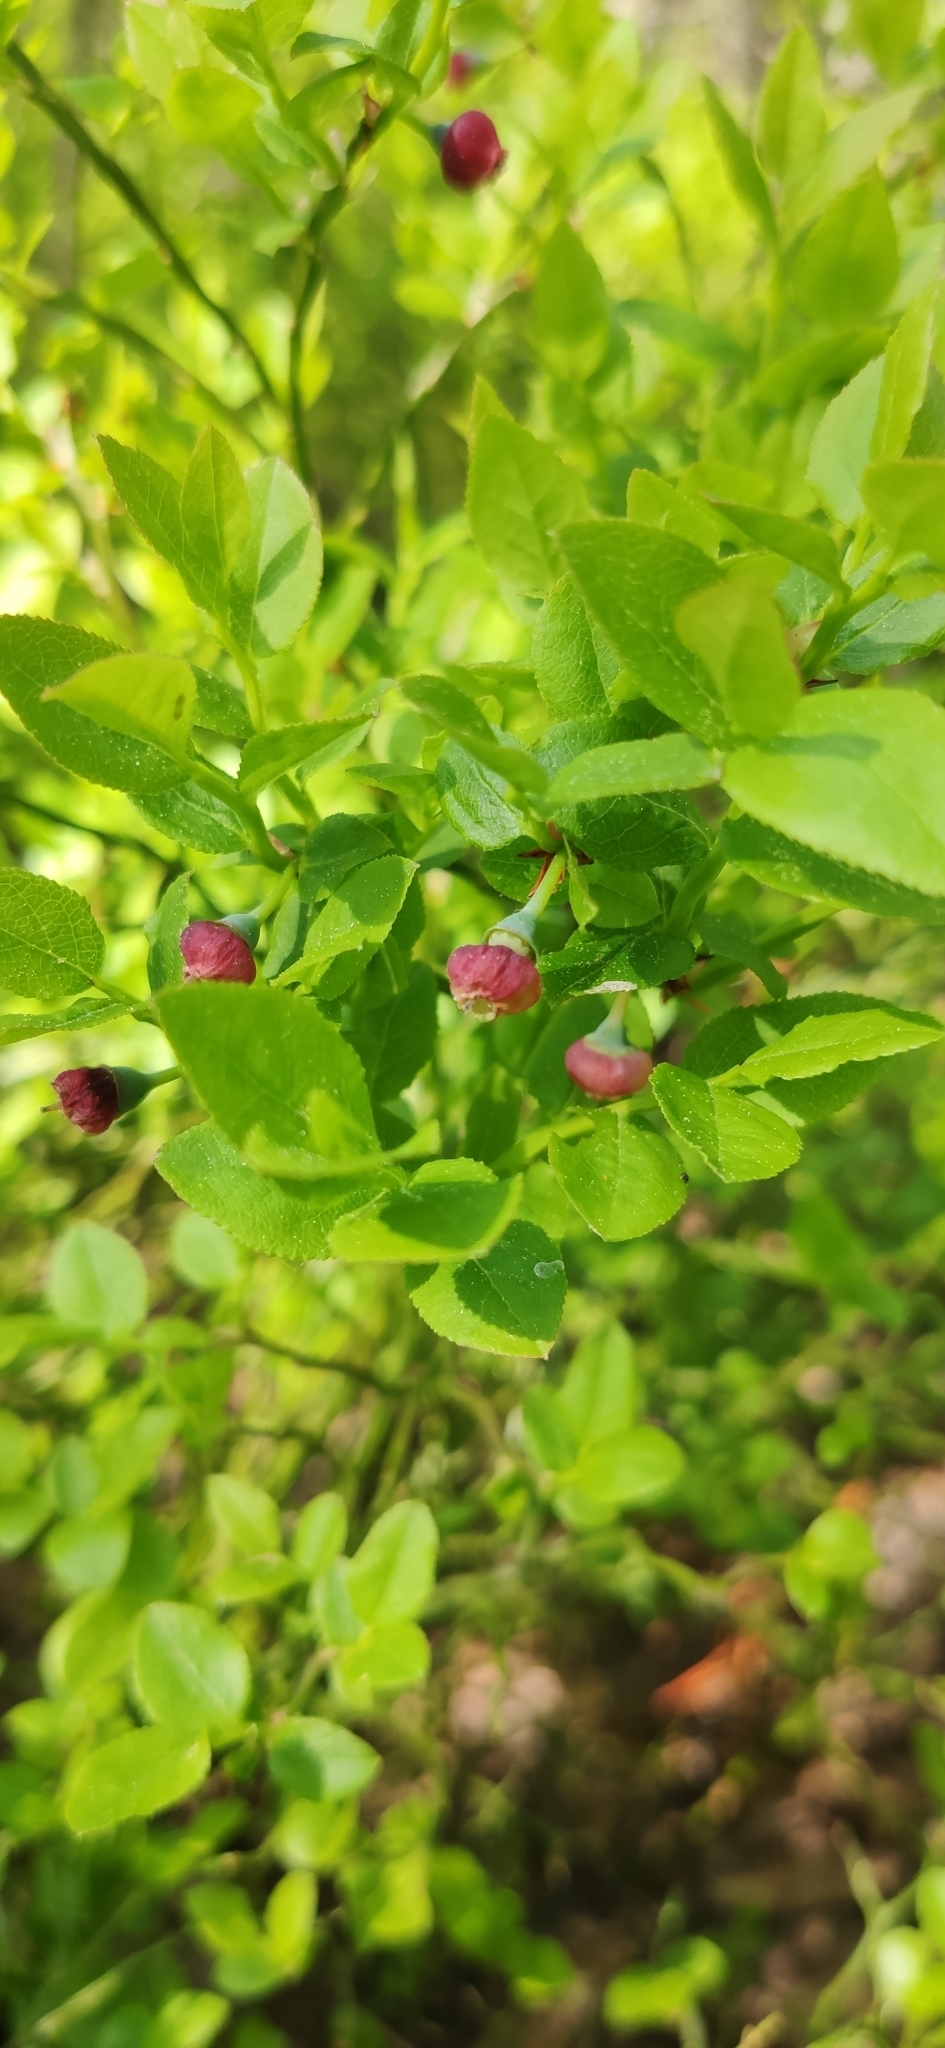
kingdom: Plantae
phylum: Tracheophyta
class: Magnoliopsida
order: Ericales
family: Ericaceae
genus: Vaccinium
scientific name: Vaccinium myrtillus
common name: Bilberry
